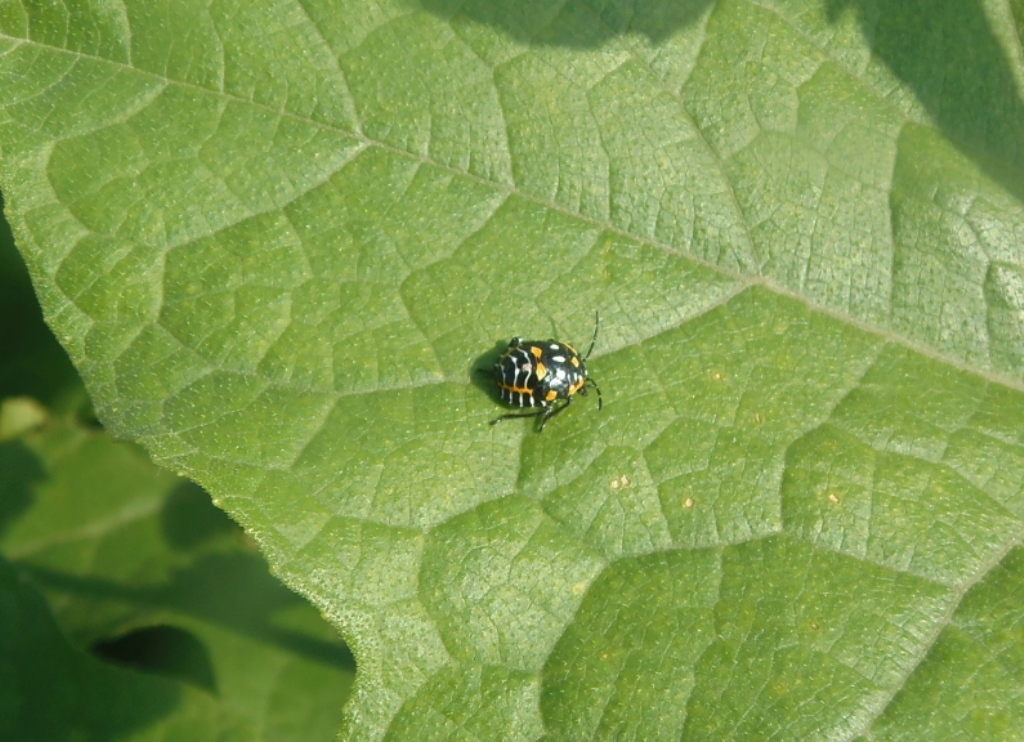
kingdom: Animalia
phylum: Arthropoda
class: Insecta
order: Hemiptera
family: Pentatomidae
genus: Murgantia
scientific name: Murgantia histrionica
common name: Harlequin bug
